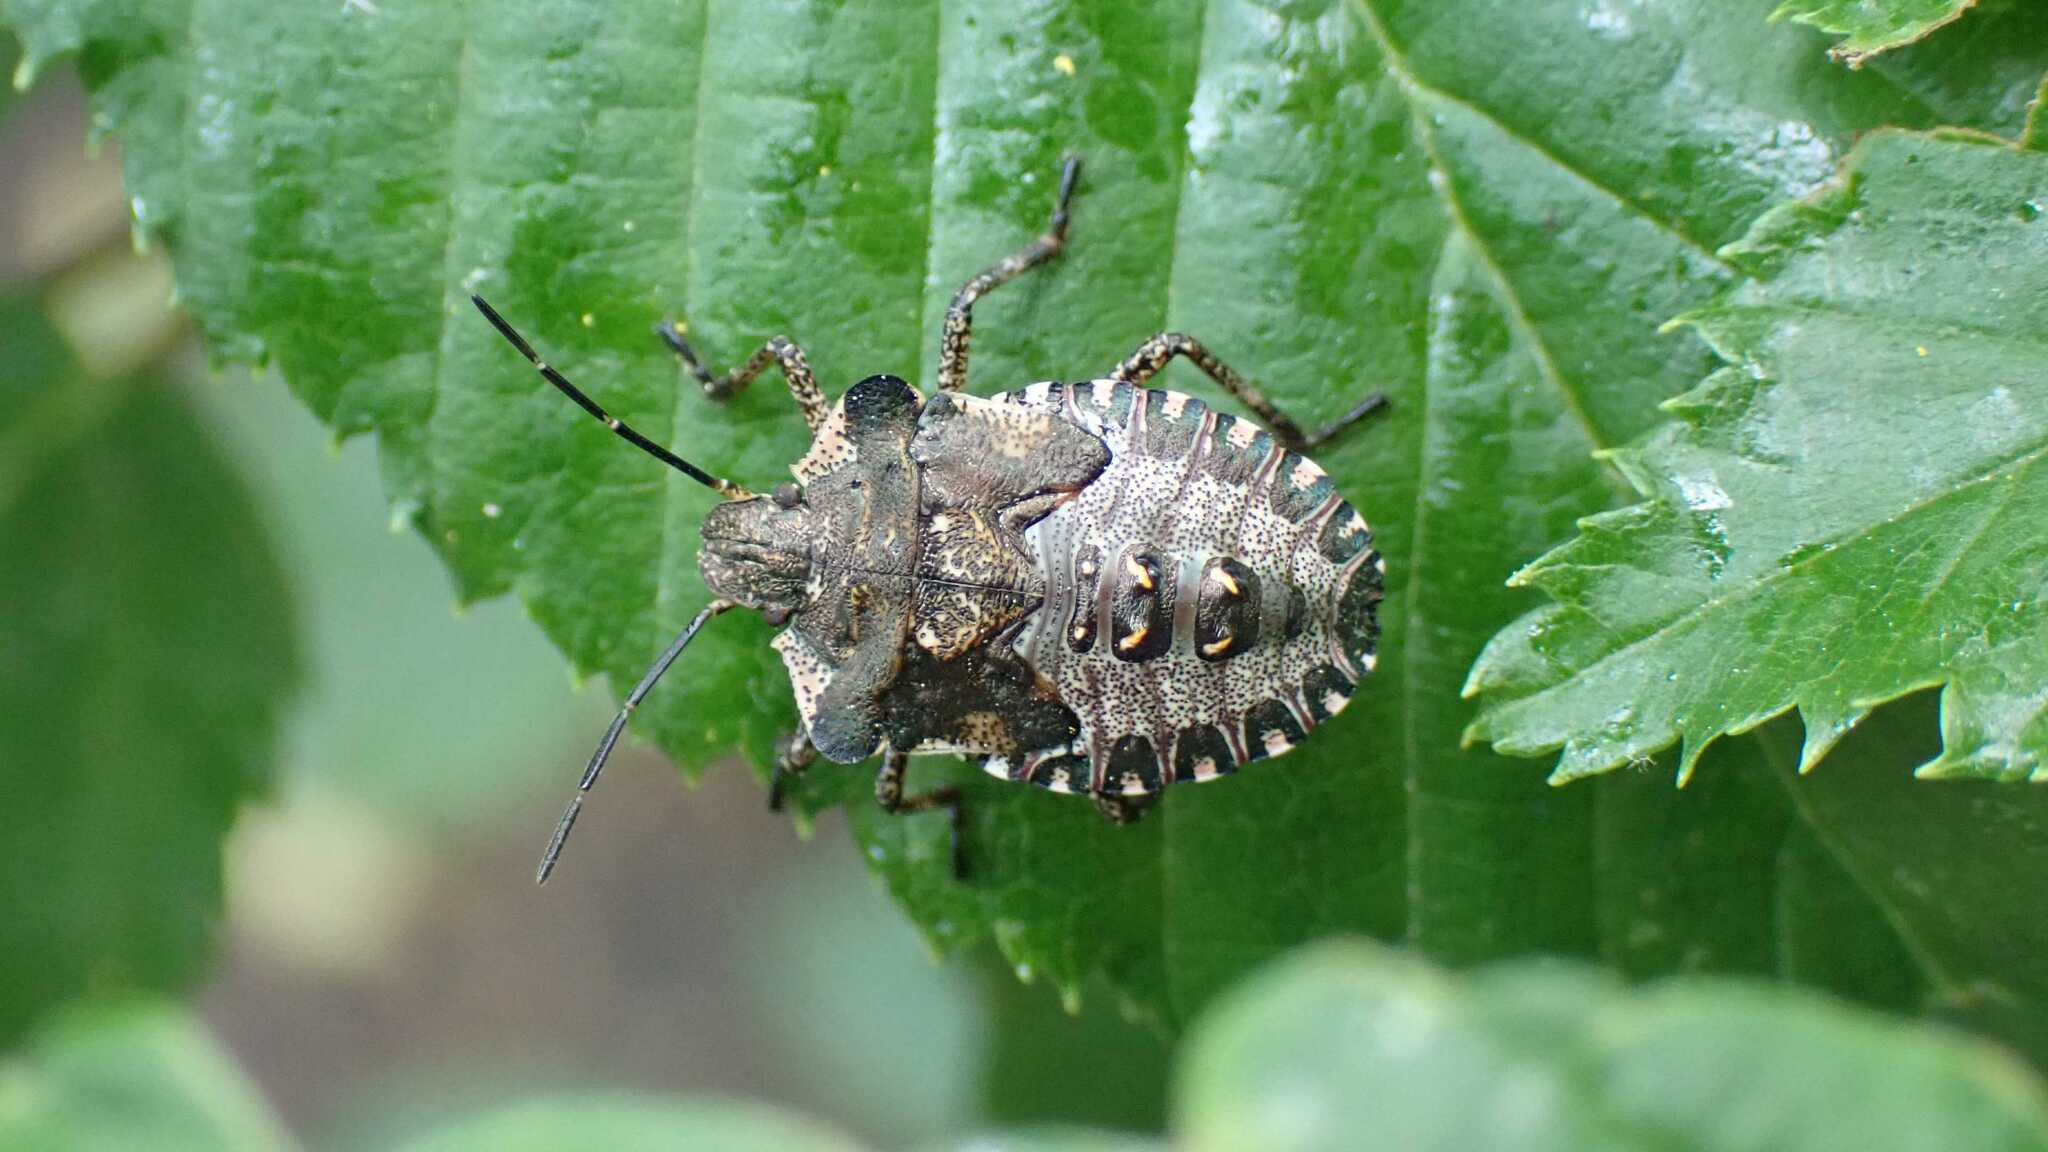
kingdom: Animalia
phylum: Arthropoda
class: Insecta
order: Hemiptera
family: Pentatomidae
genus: Pentatoma
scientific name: Pentatoma rufipes
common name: Forest bug
